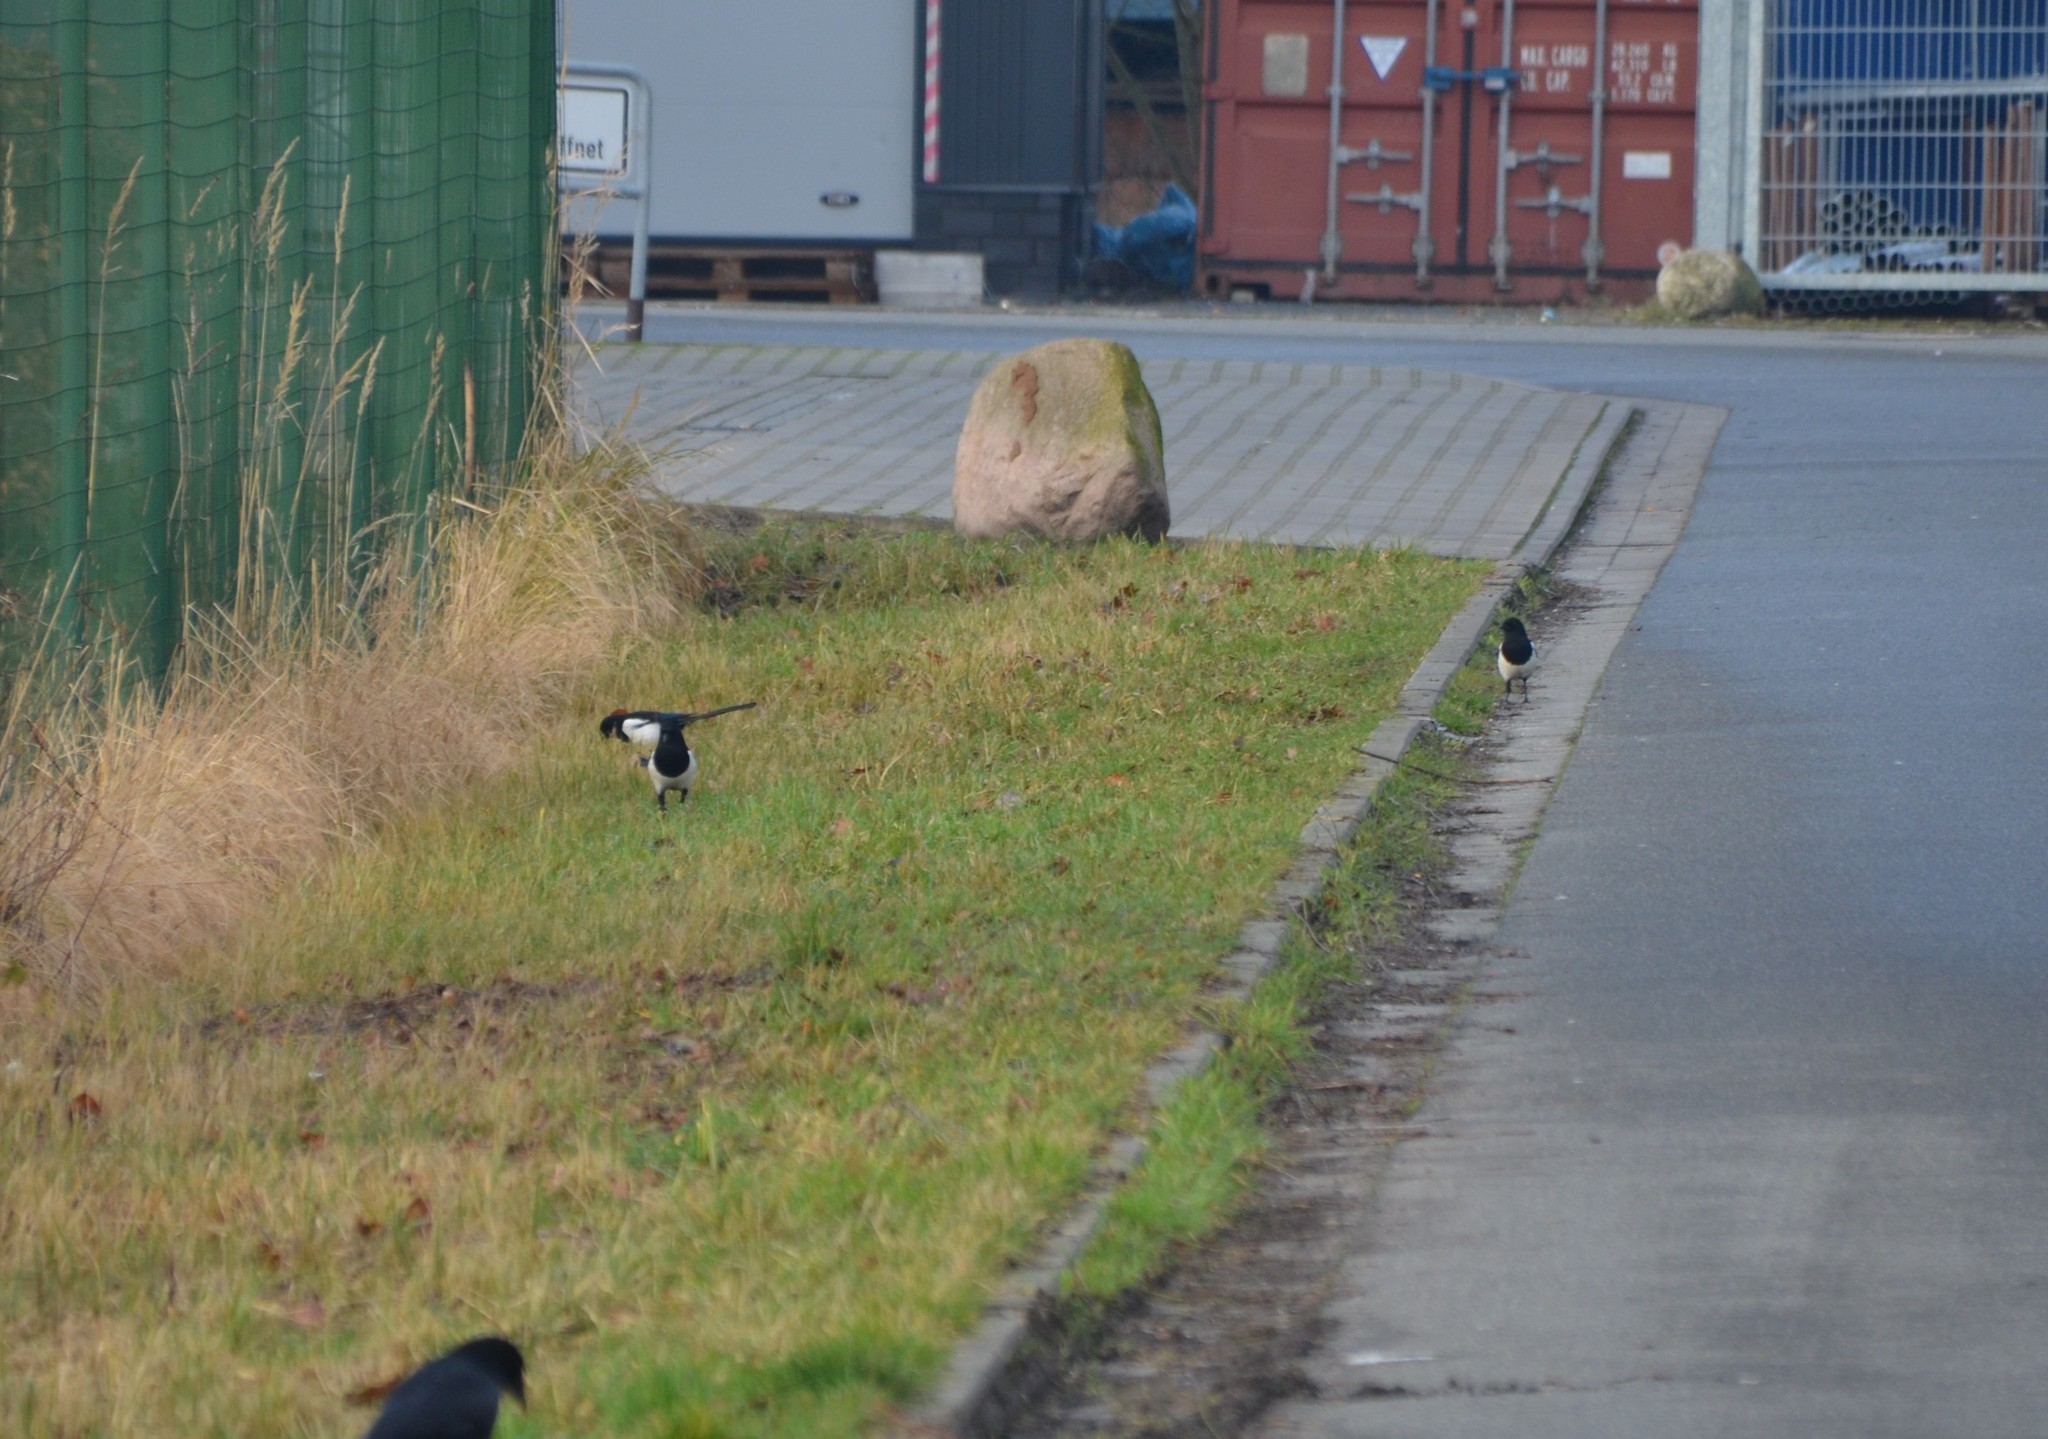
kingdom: Animalia
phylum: Chordata
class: Aves
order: Passeriformes
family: Corvidae
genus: Pica
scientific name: Pica pica
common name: Eurasian magpie
